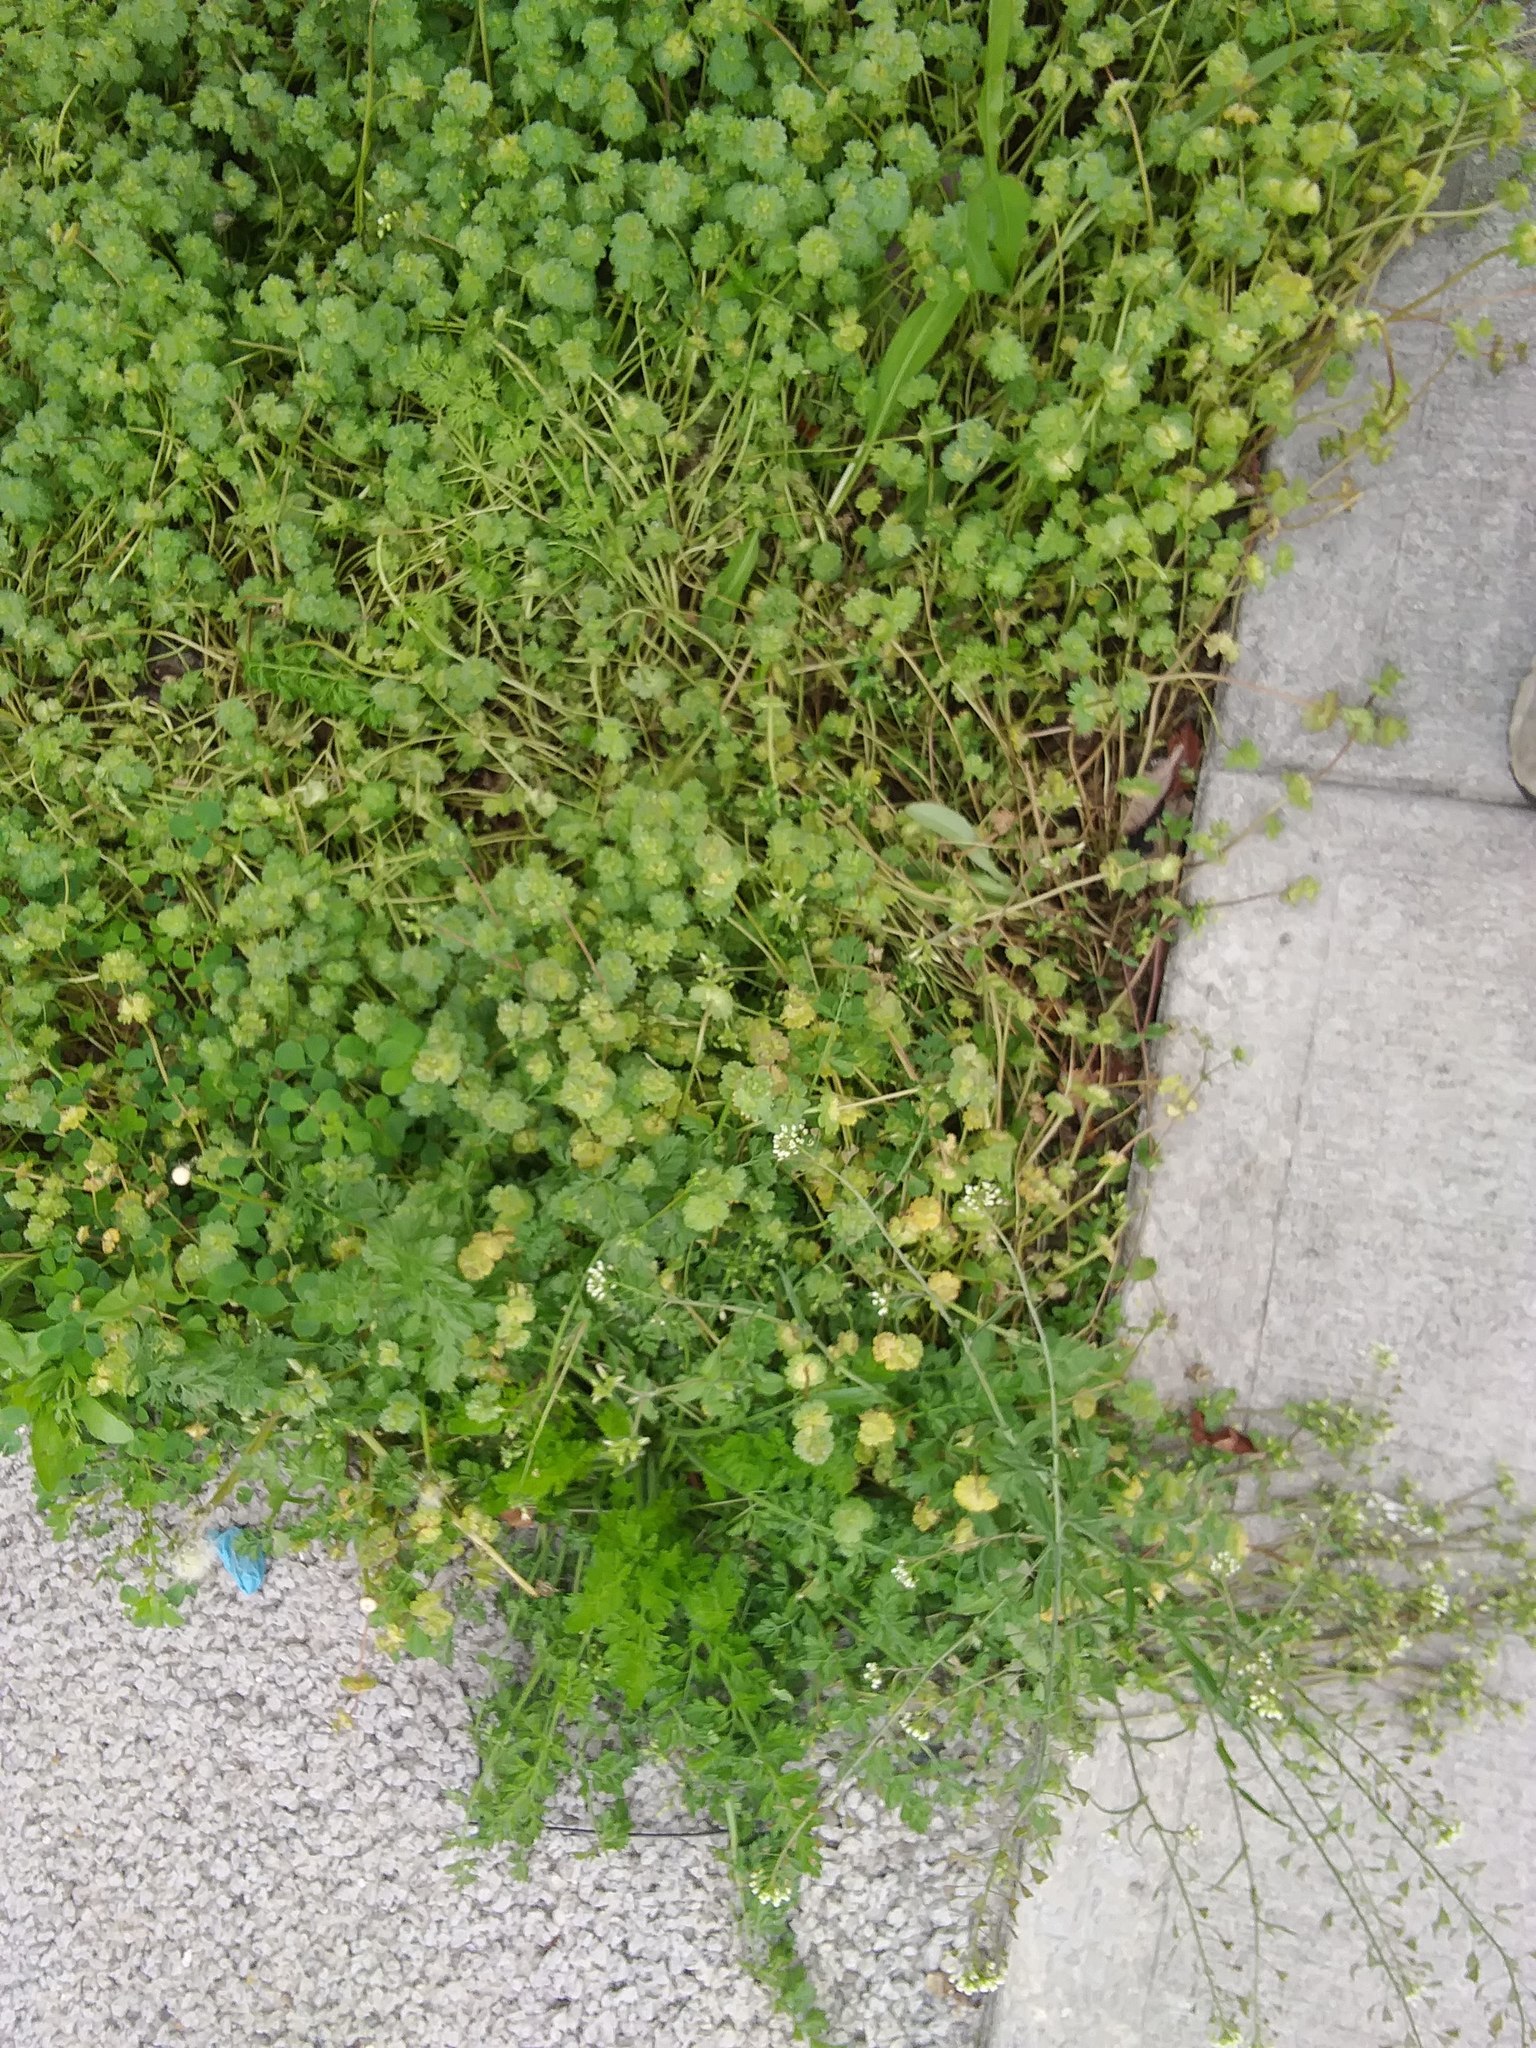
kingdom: Plantae
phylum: Tracheophyta
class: Magnoliopsida
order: Lamiales
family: Lamiaceae
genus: Lamium
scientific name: Lamium amplexicaule
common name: Henbit dead-nettle
